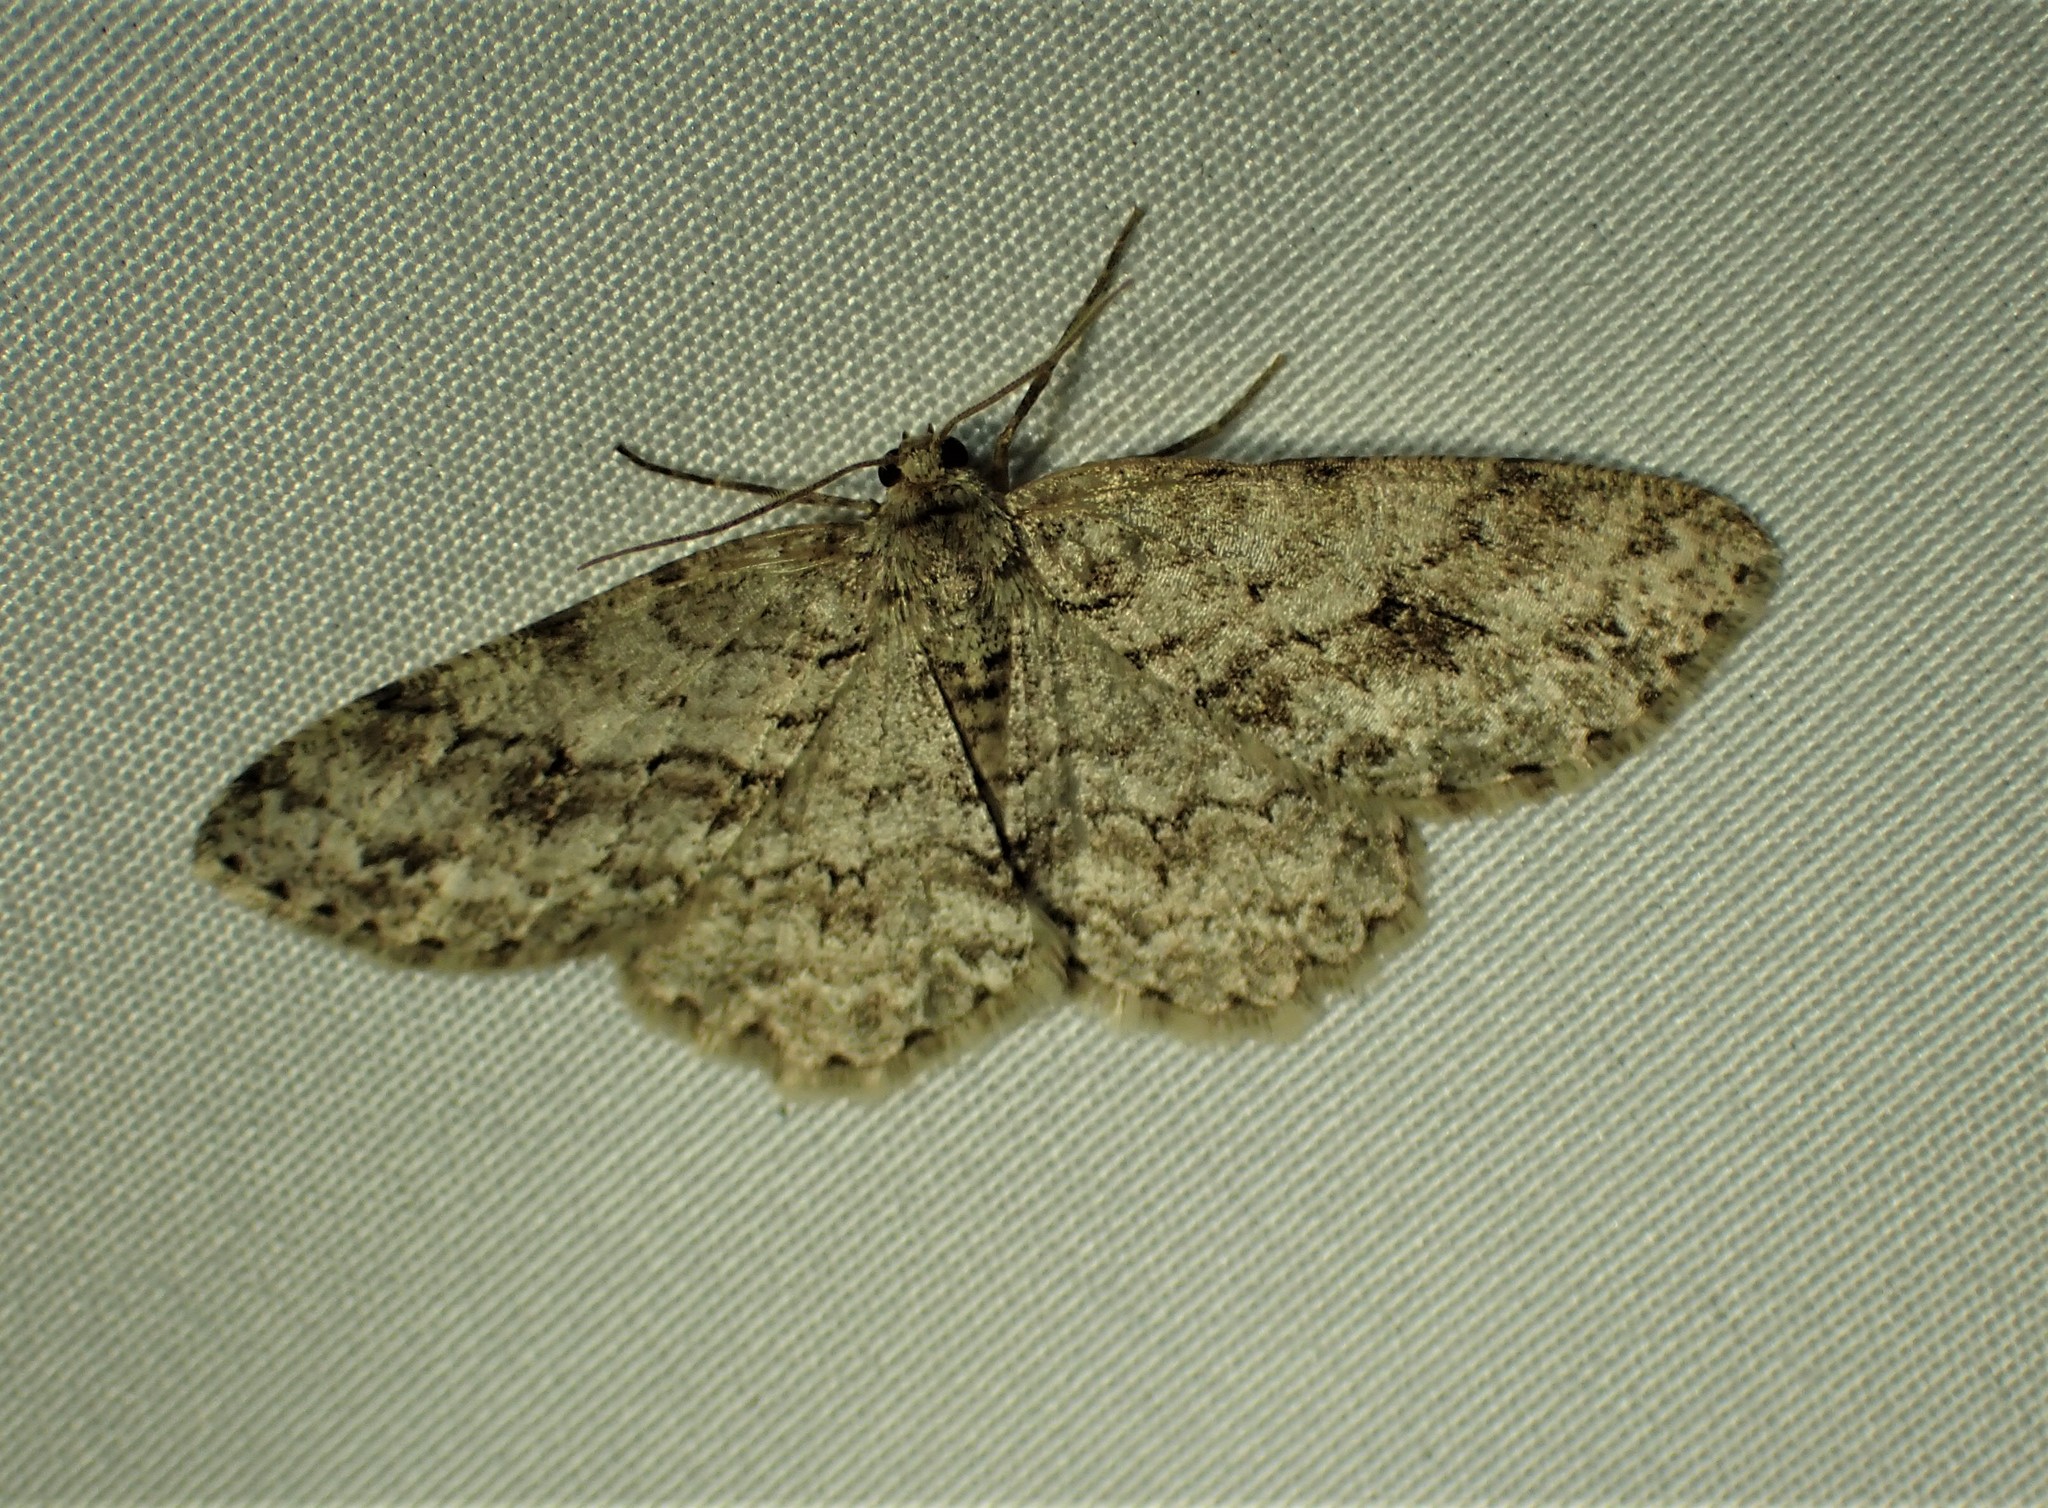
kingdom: Animalia
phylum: Arthropoda
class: Insecta
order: Lepidoptera
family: Geometridae
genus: Ectropis
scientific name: Ectropis crepuscularia
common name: Engrailed
